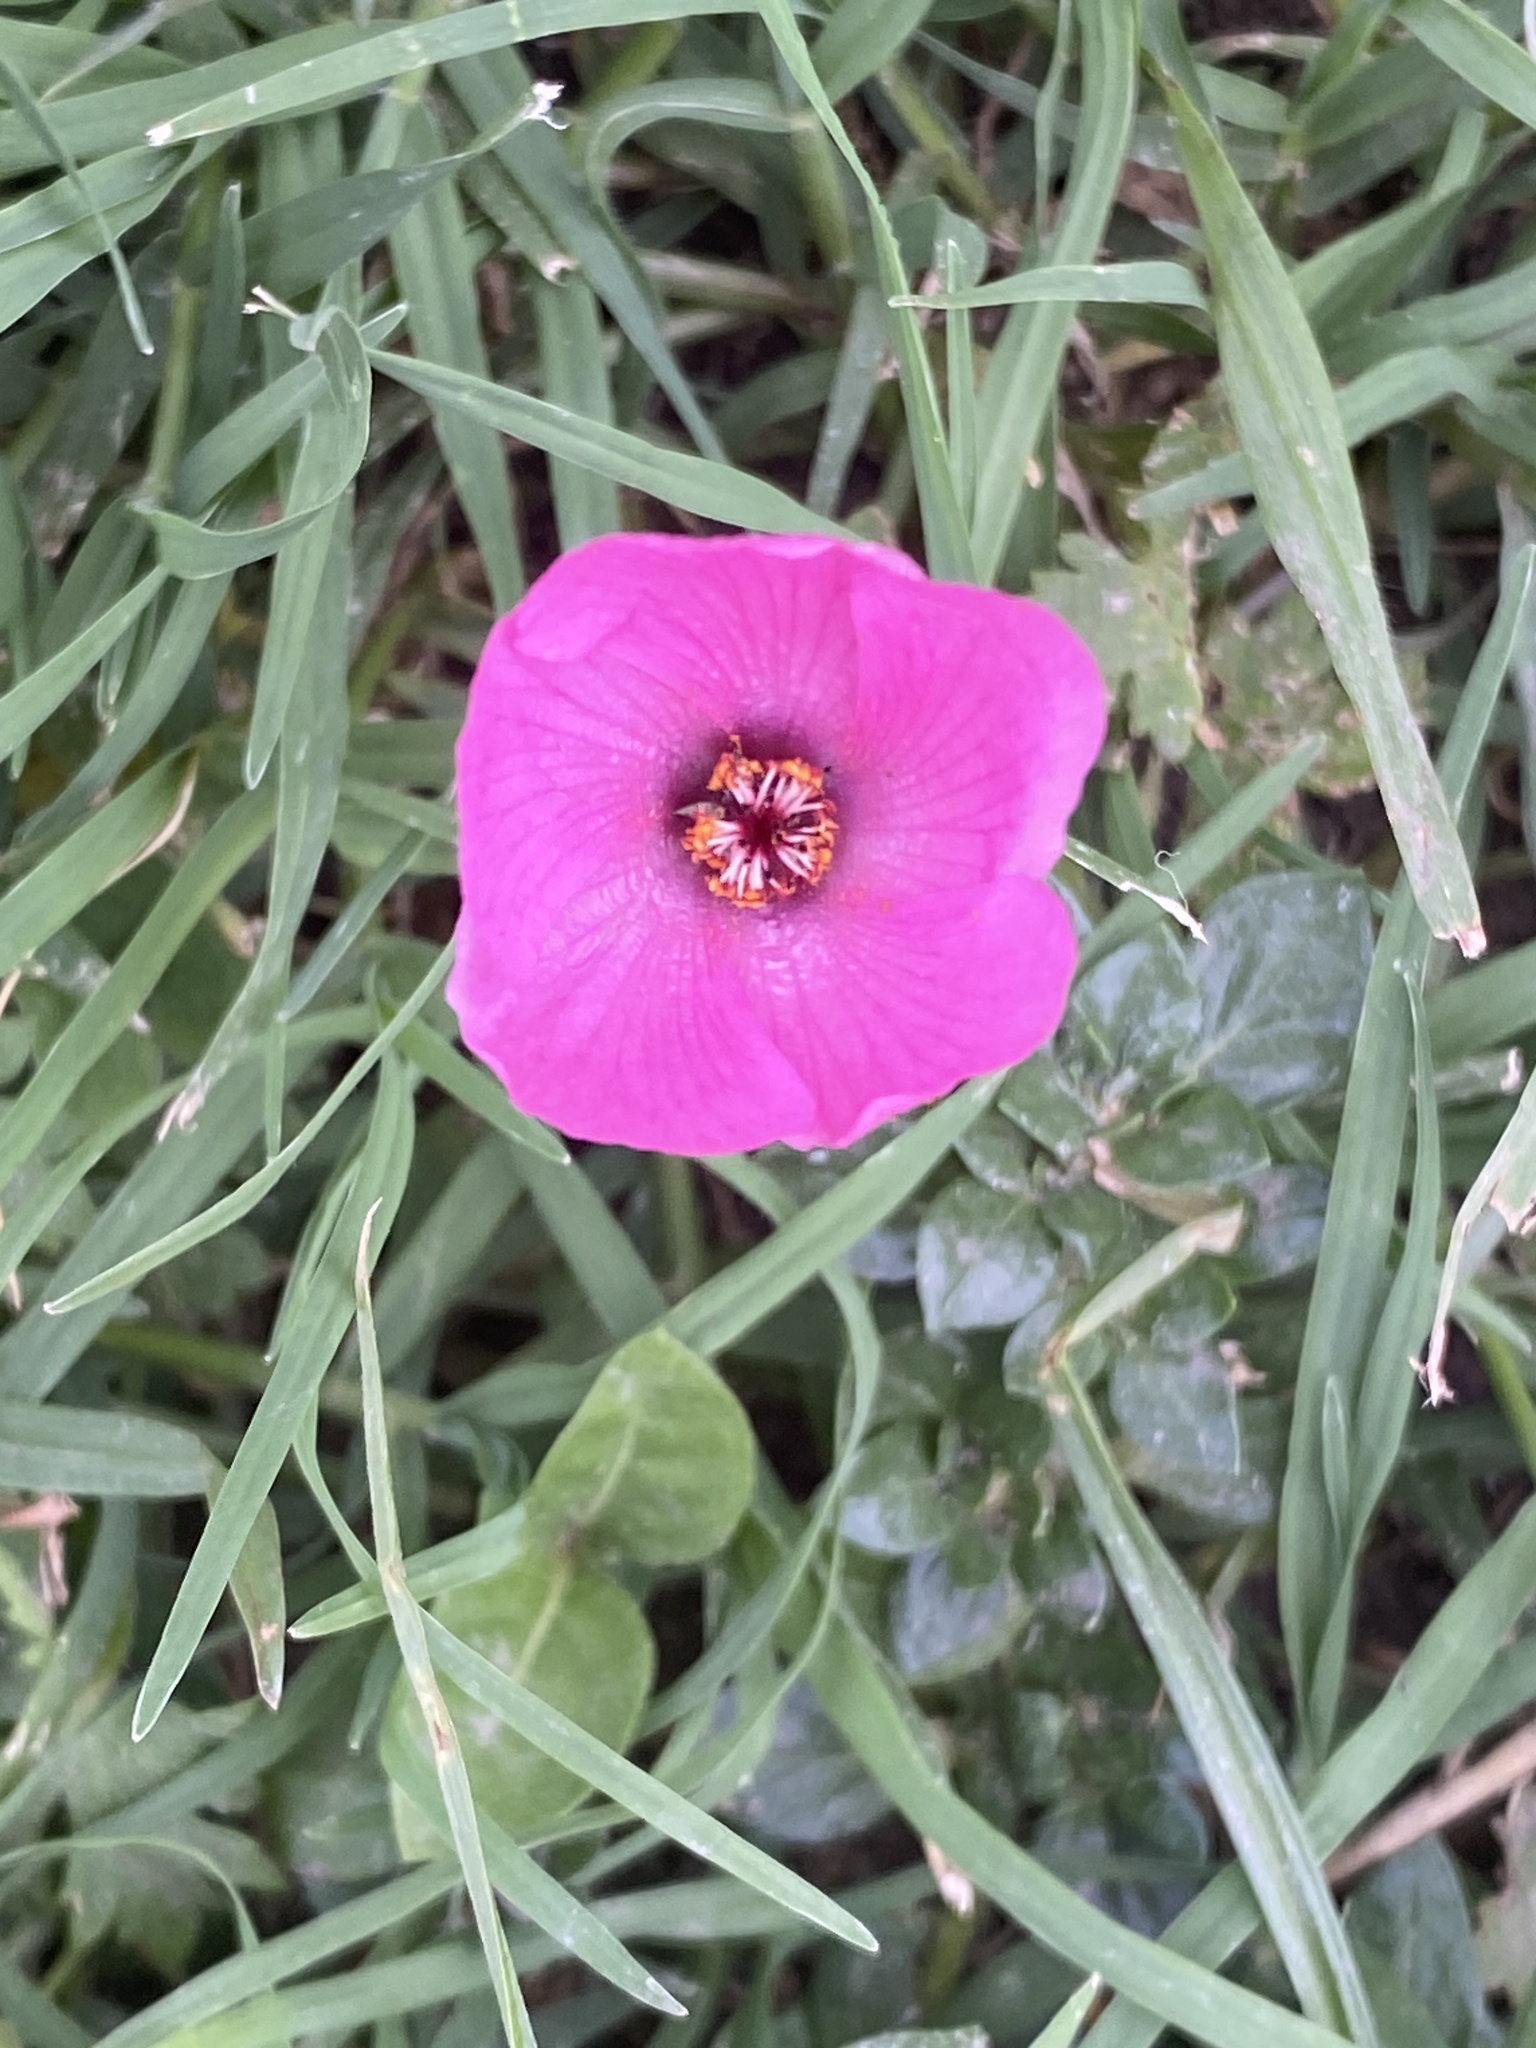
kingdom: Plantae
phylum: Tracheophyta
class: Magnoliopsida
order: Malvales
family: Malvaceae
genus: Modiolastrum
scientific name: Modiolastrum gilliesii
